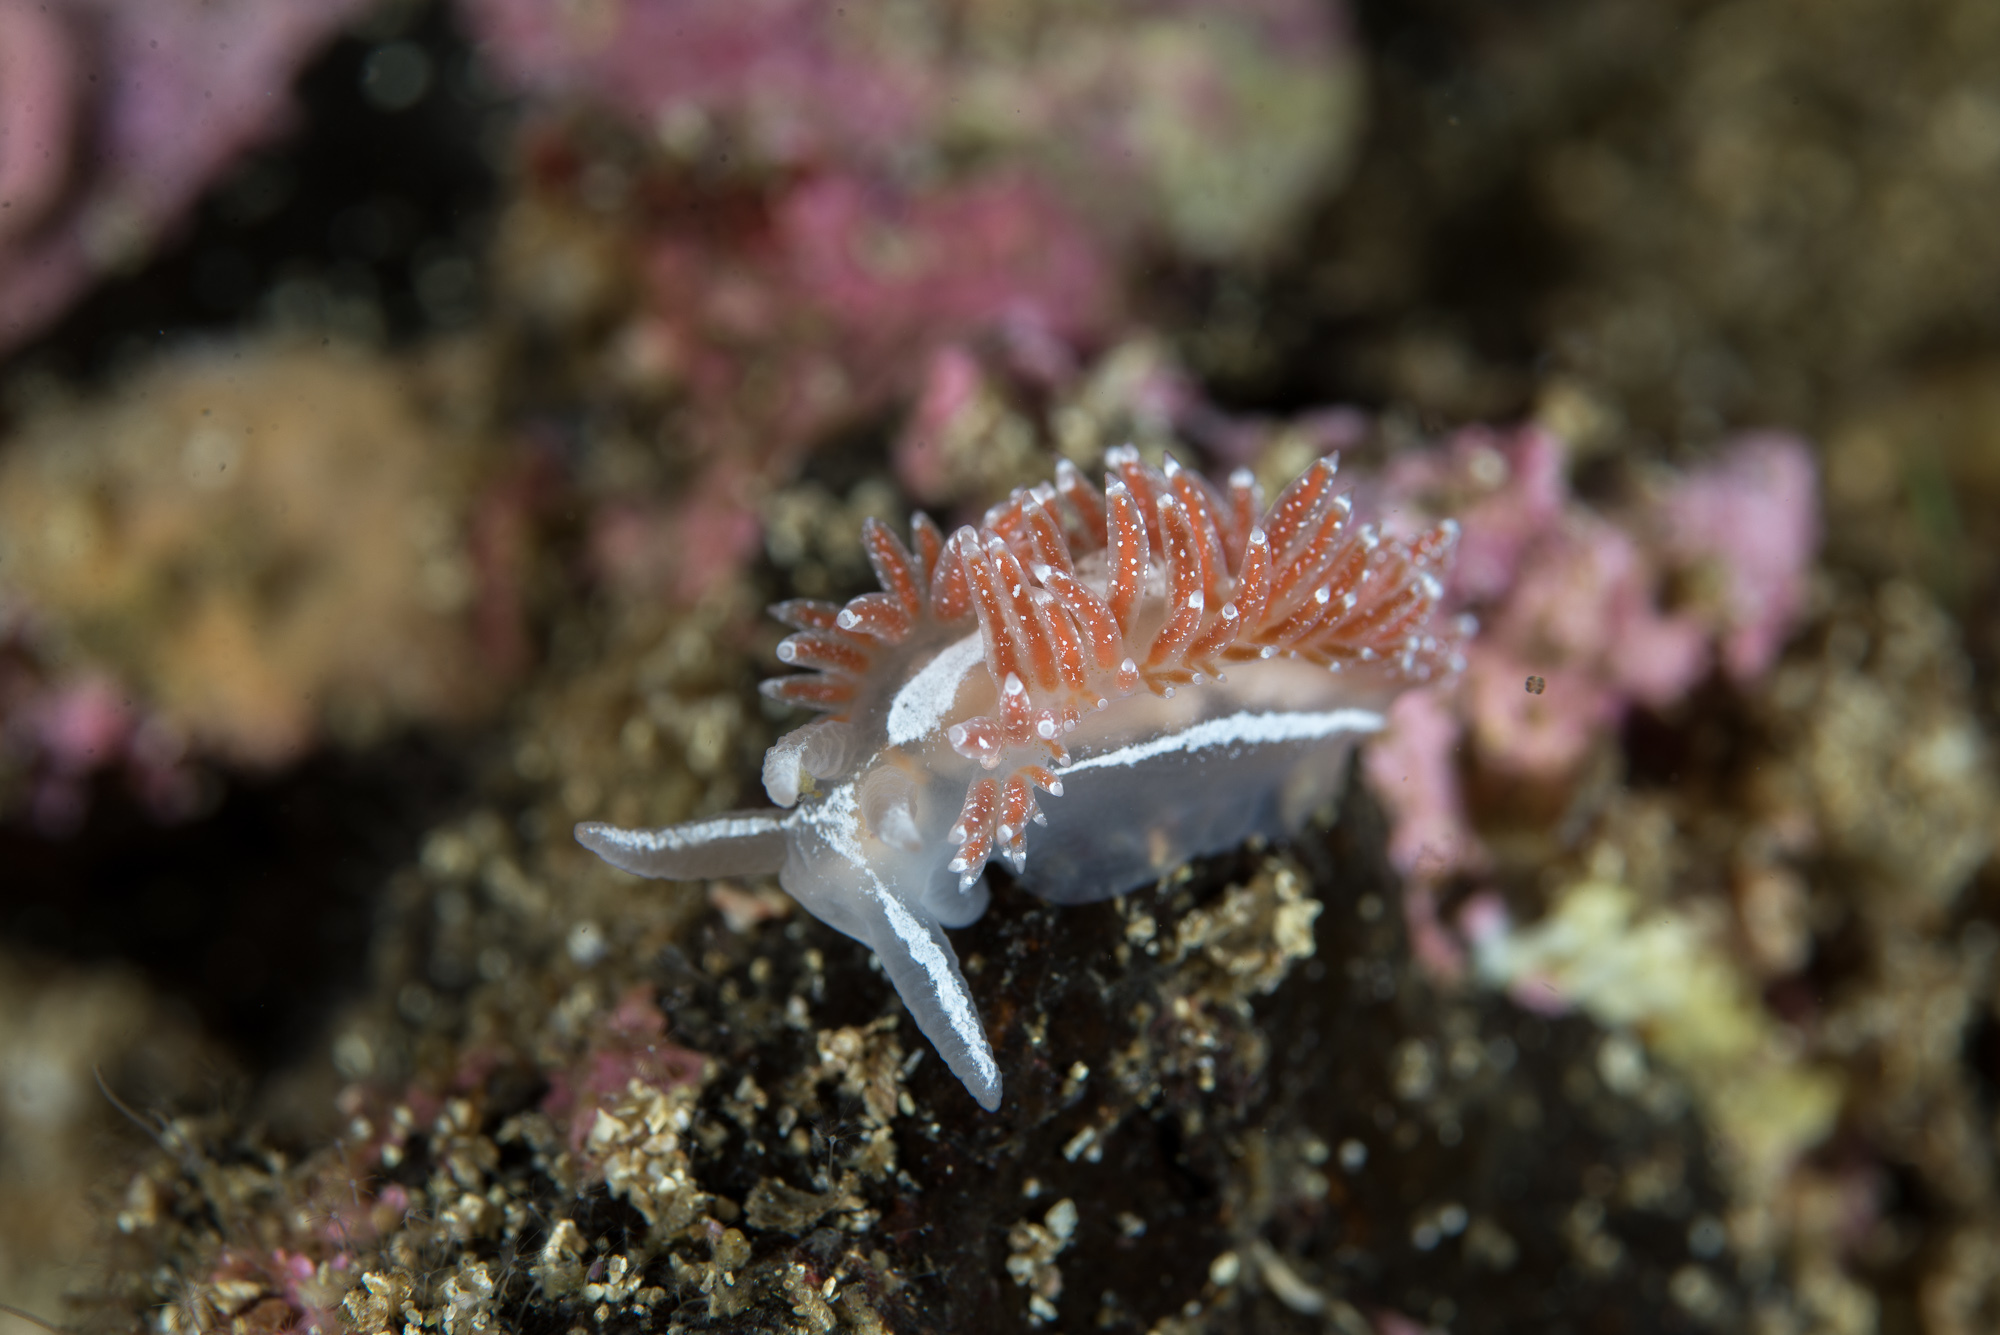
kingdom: Animalia
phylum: Mollusca
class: Gastropoda
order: Nudibranchia
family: Coryphellidae
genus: Coryphella
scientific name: Coryphella orjani
